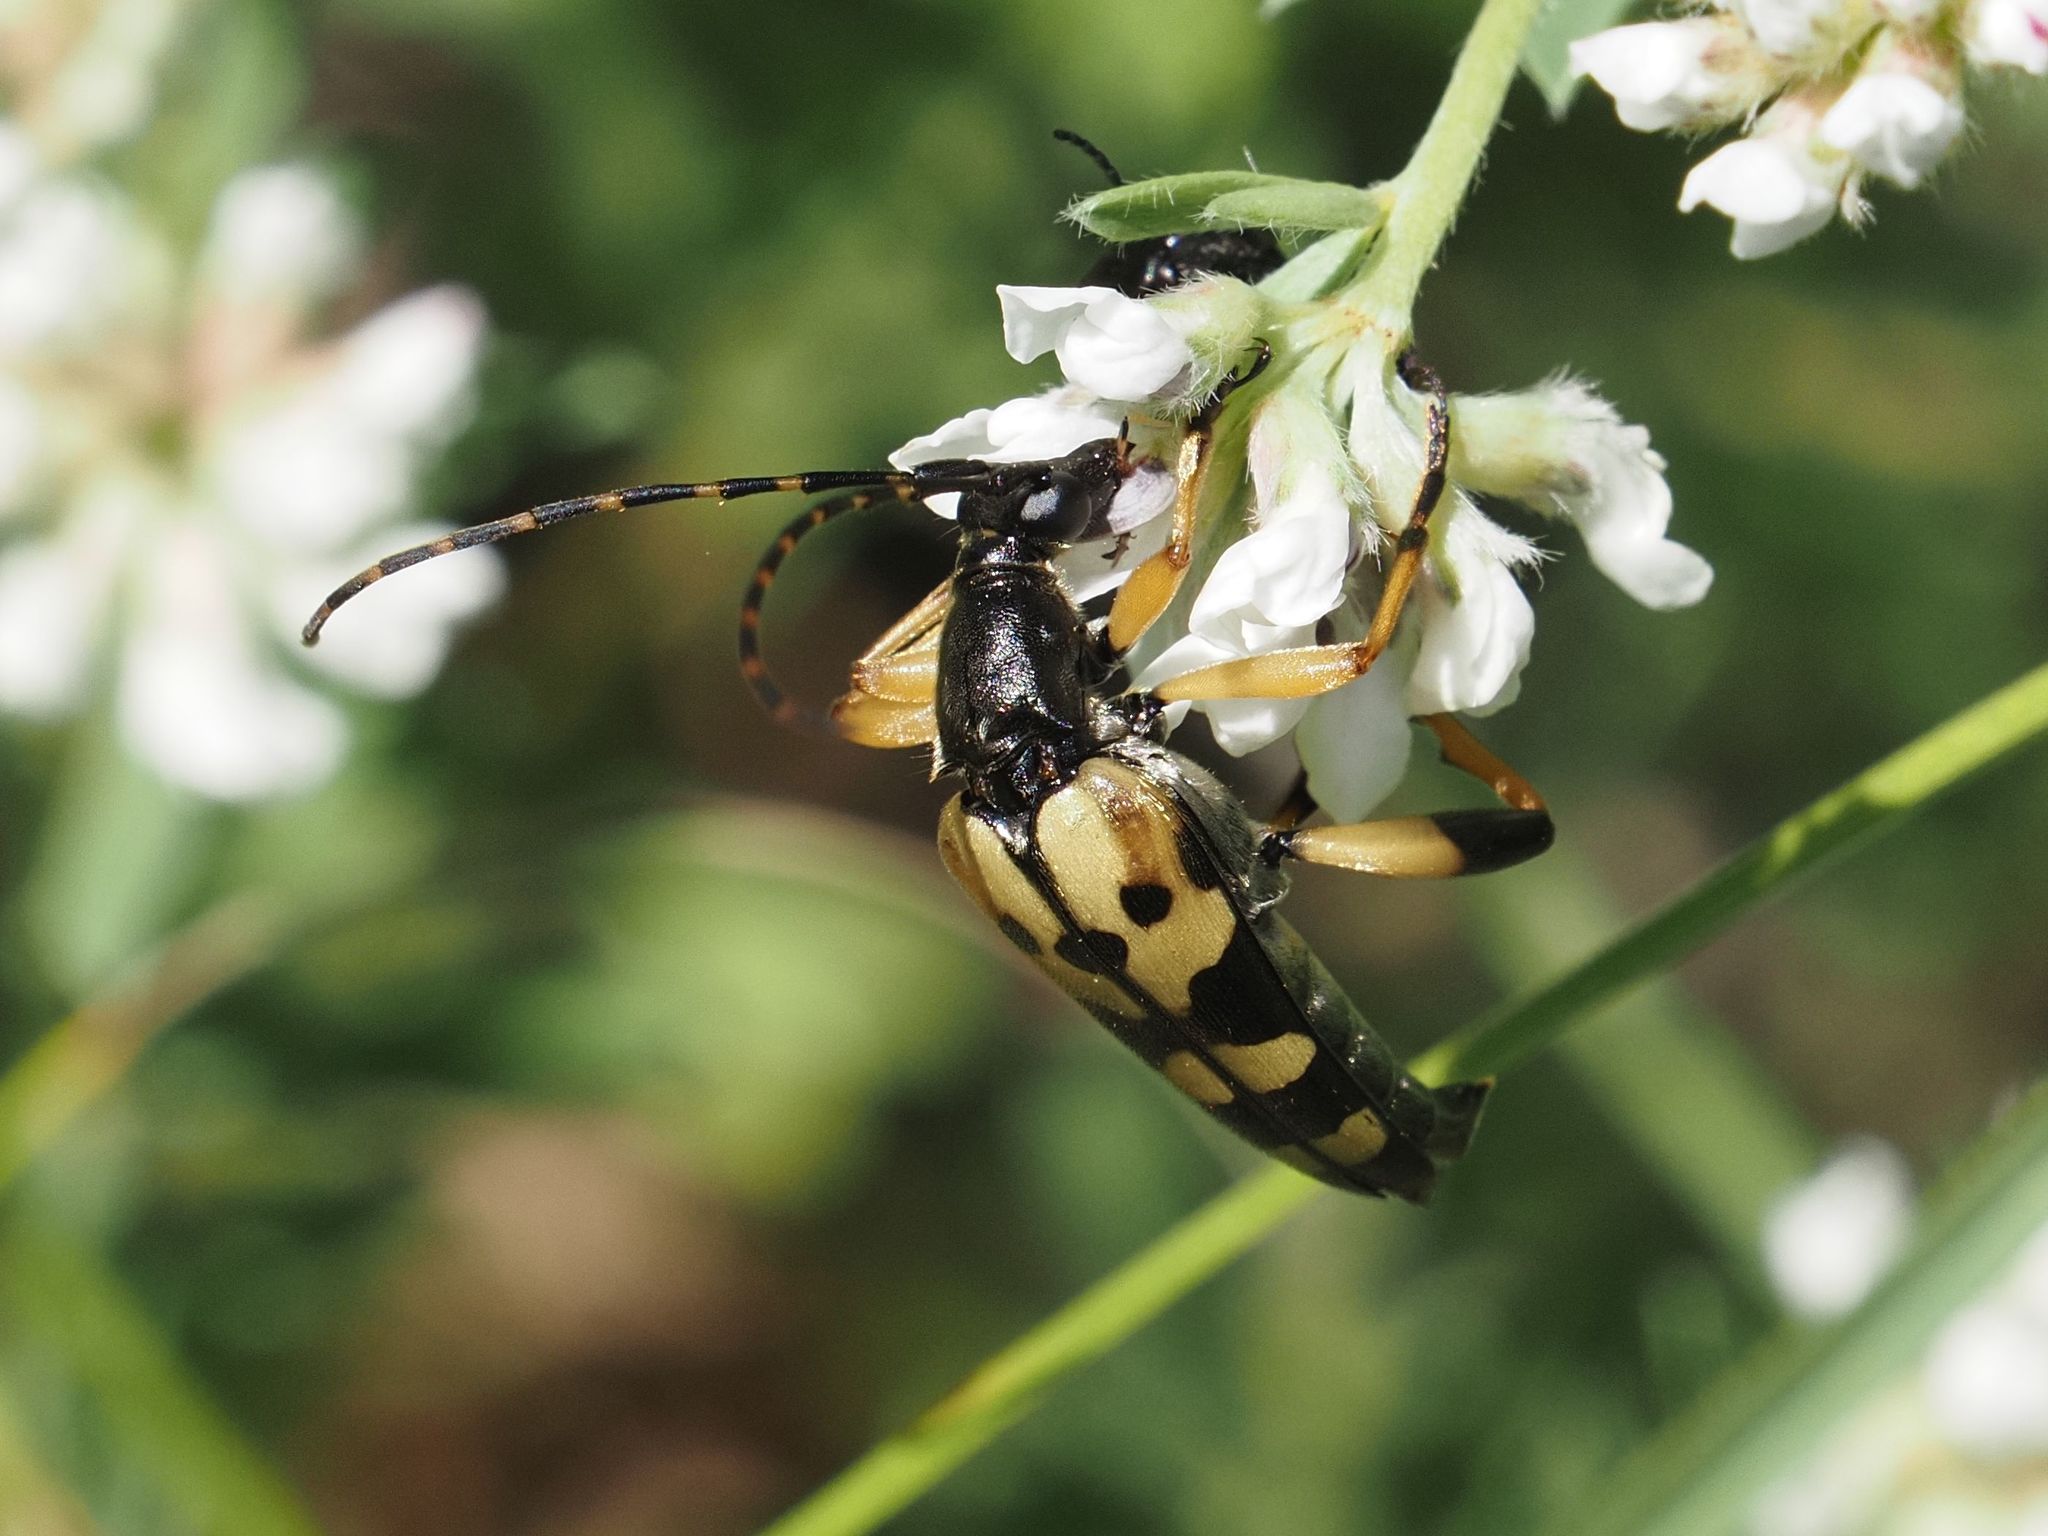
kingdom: Animalia
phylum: Arthropoda
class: Insecta
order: Coleoptera
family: Cerambycidae
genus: Rutpela
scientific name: Rutpela maculata
